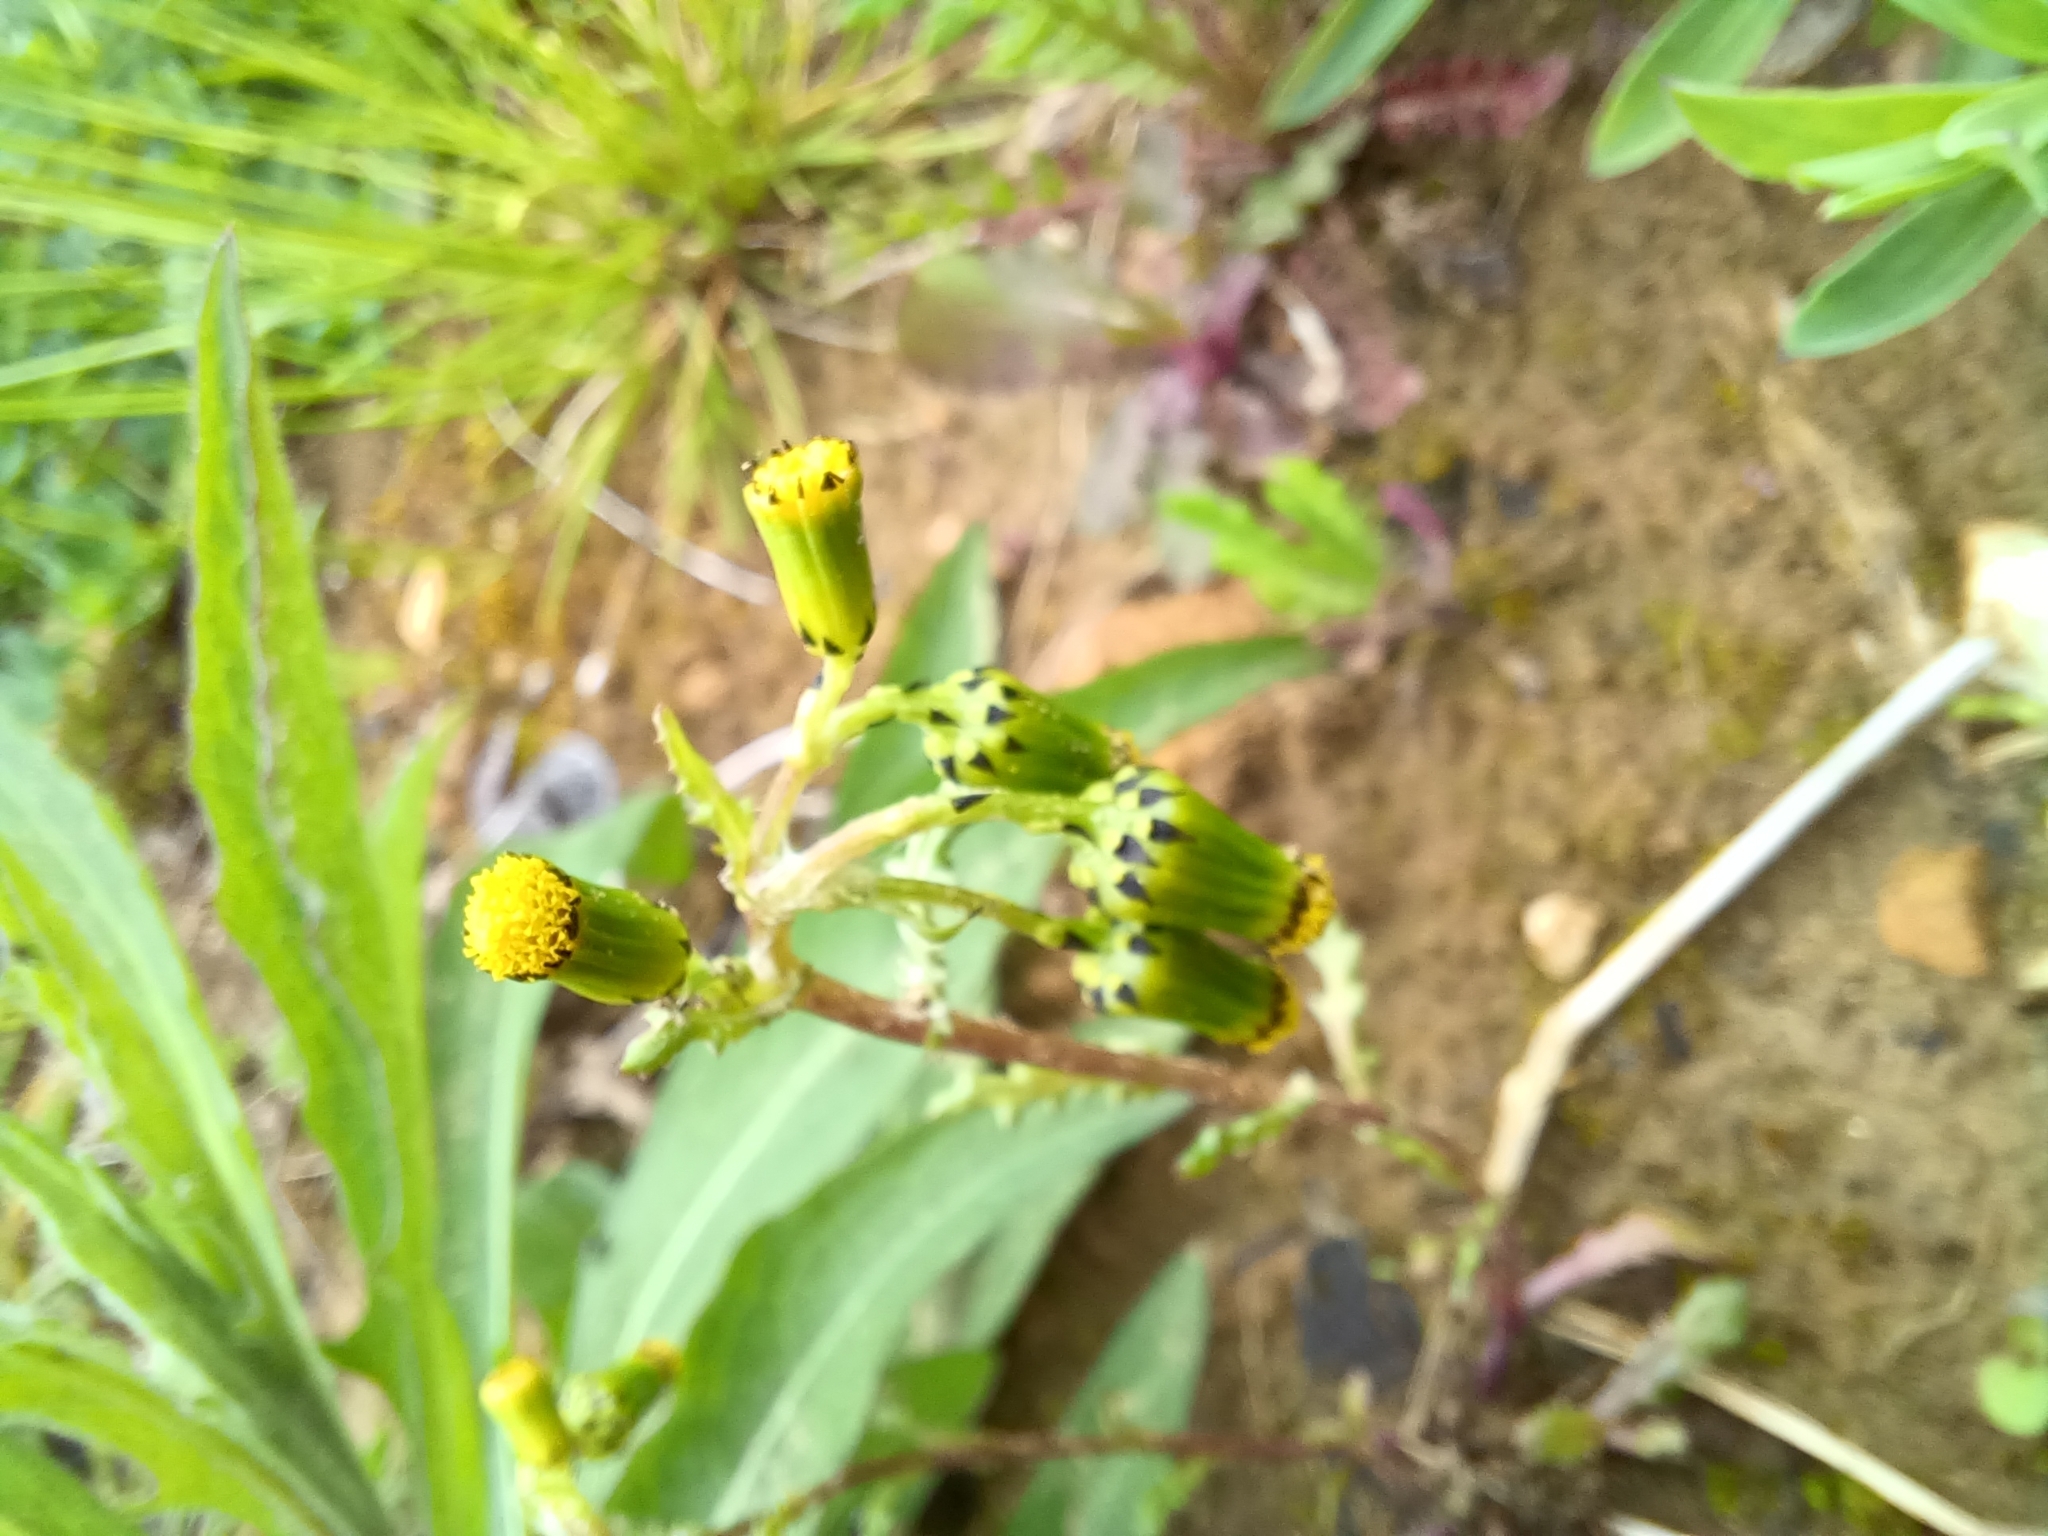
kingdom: Plantae
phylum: Tracheophyta
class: Magnoliopsida
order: Asterales
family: Asteraceae
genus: Senecio
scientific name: Senecio vulgaris
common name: Old-man-in-the-spring
